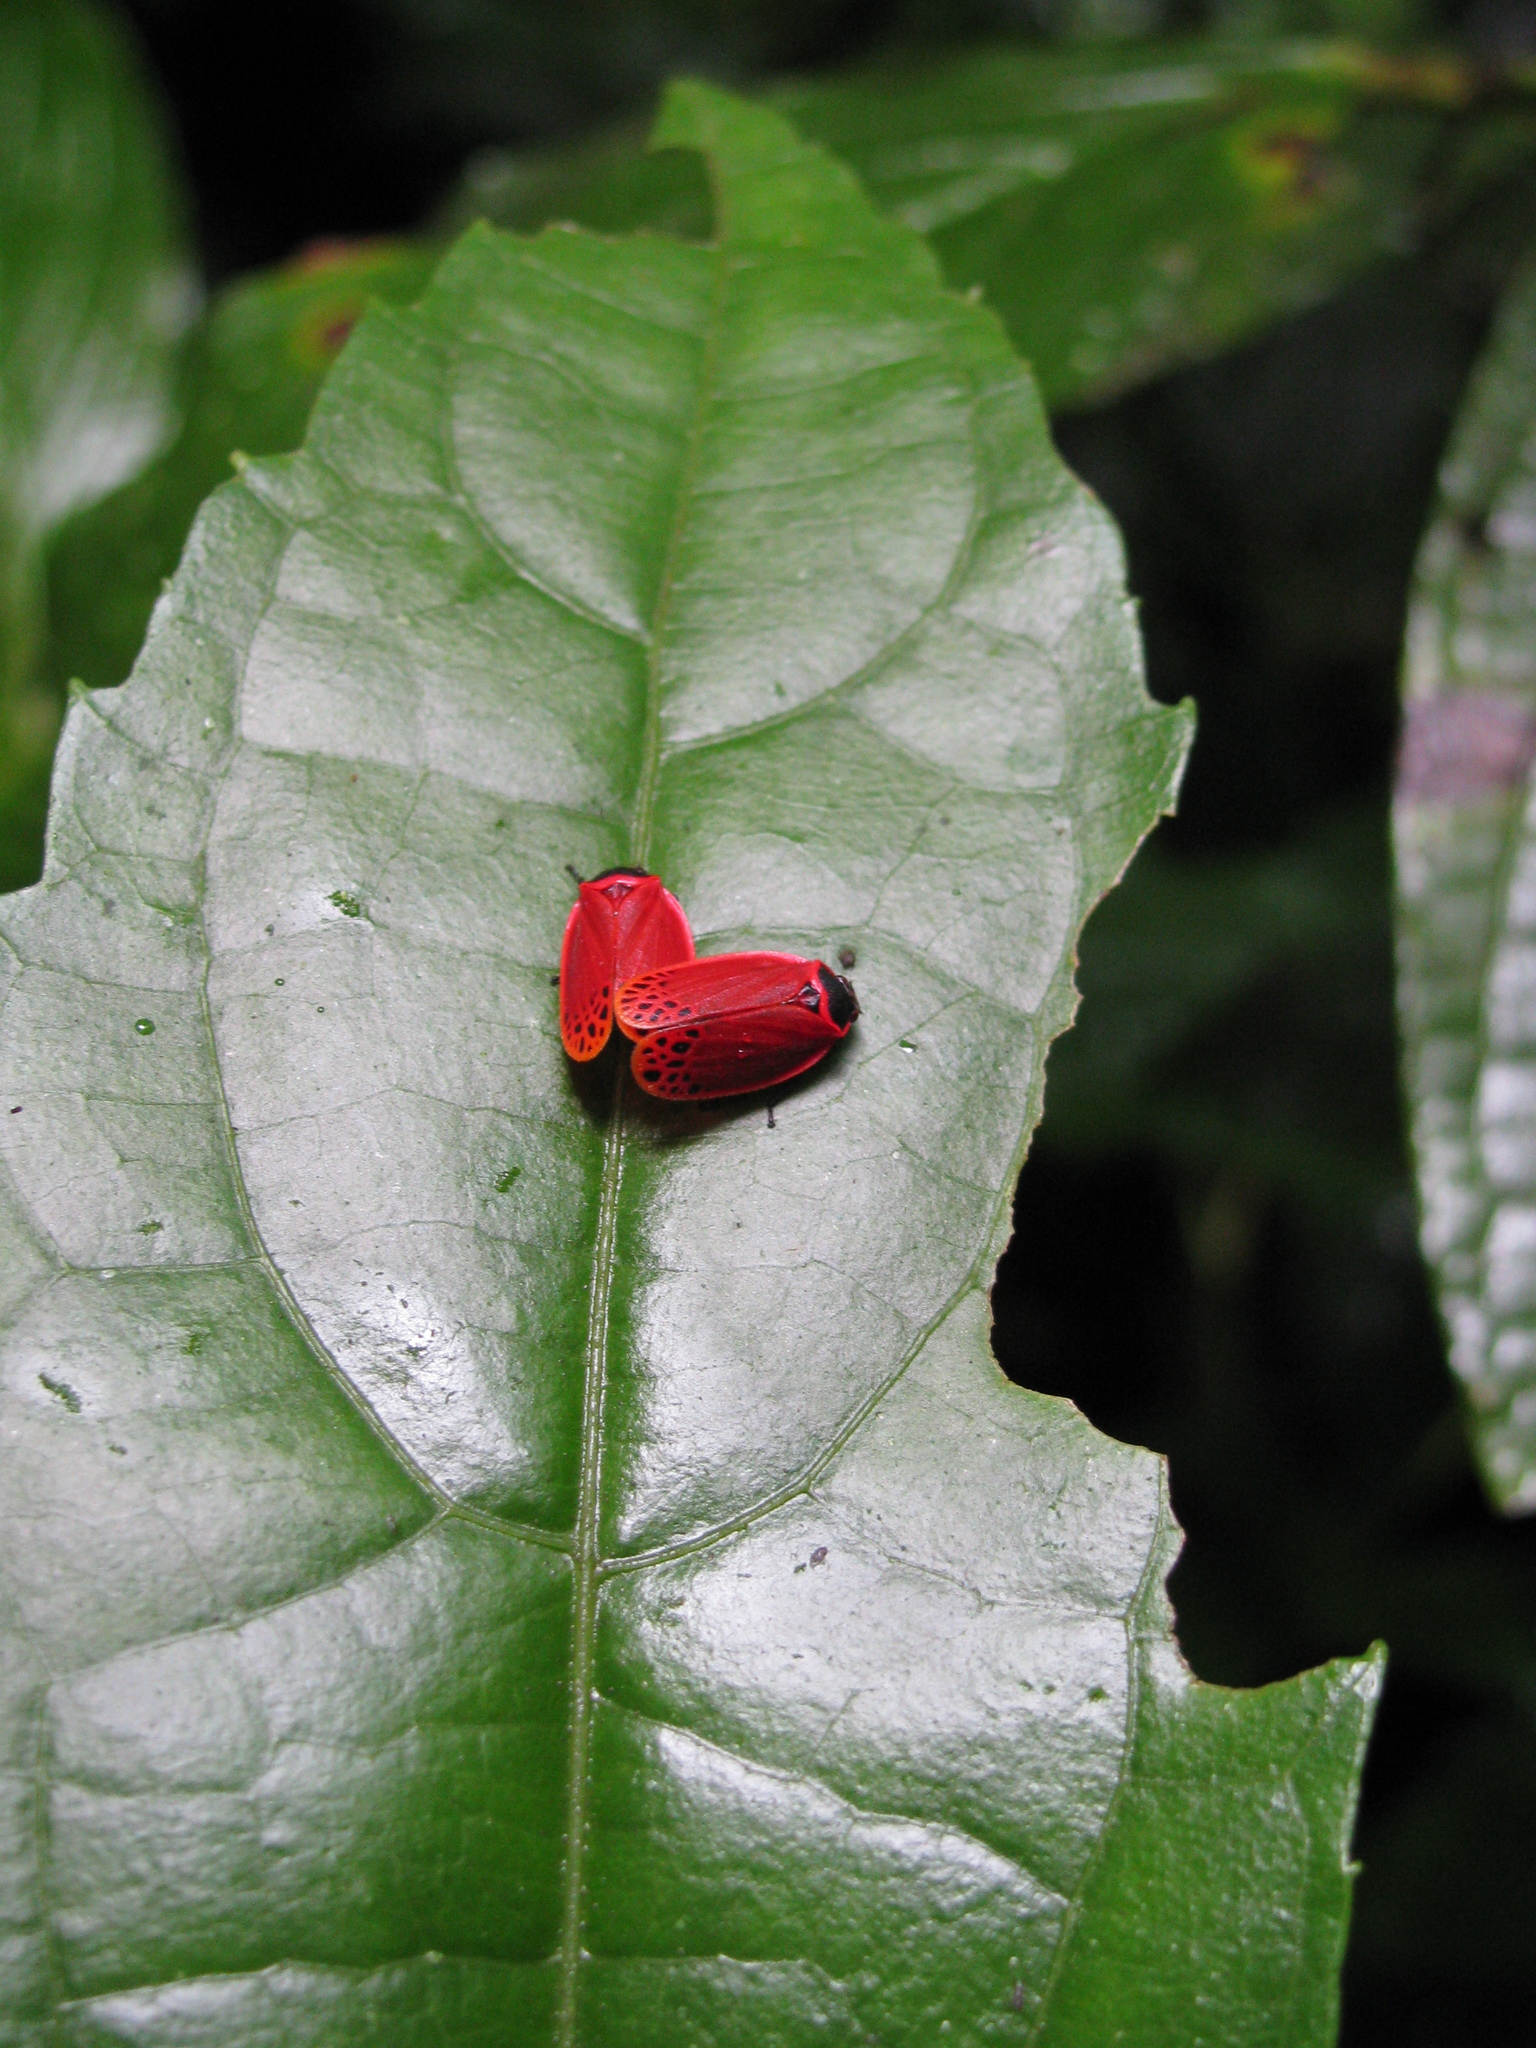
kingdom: Animalia
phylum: Arthropoda
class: Insecta
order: Hemiptera
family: Cercopidae
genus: Tomaspis
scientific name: Tomaspis biolleyi
